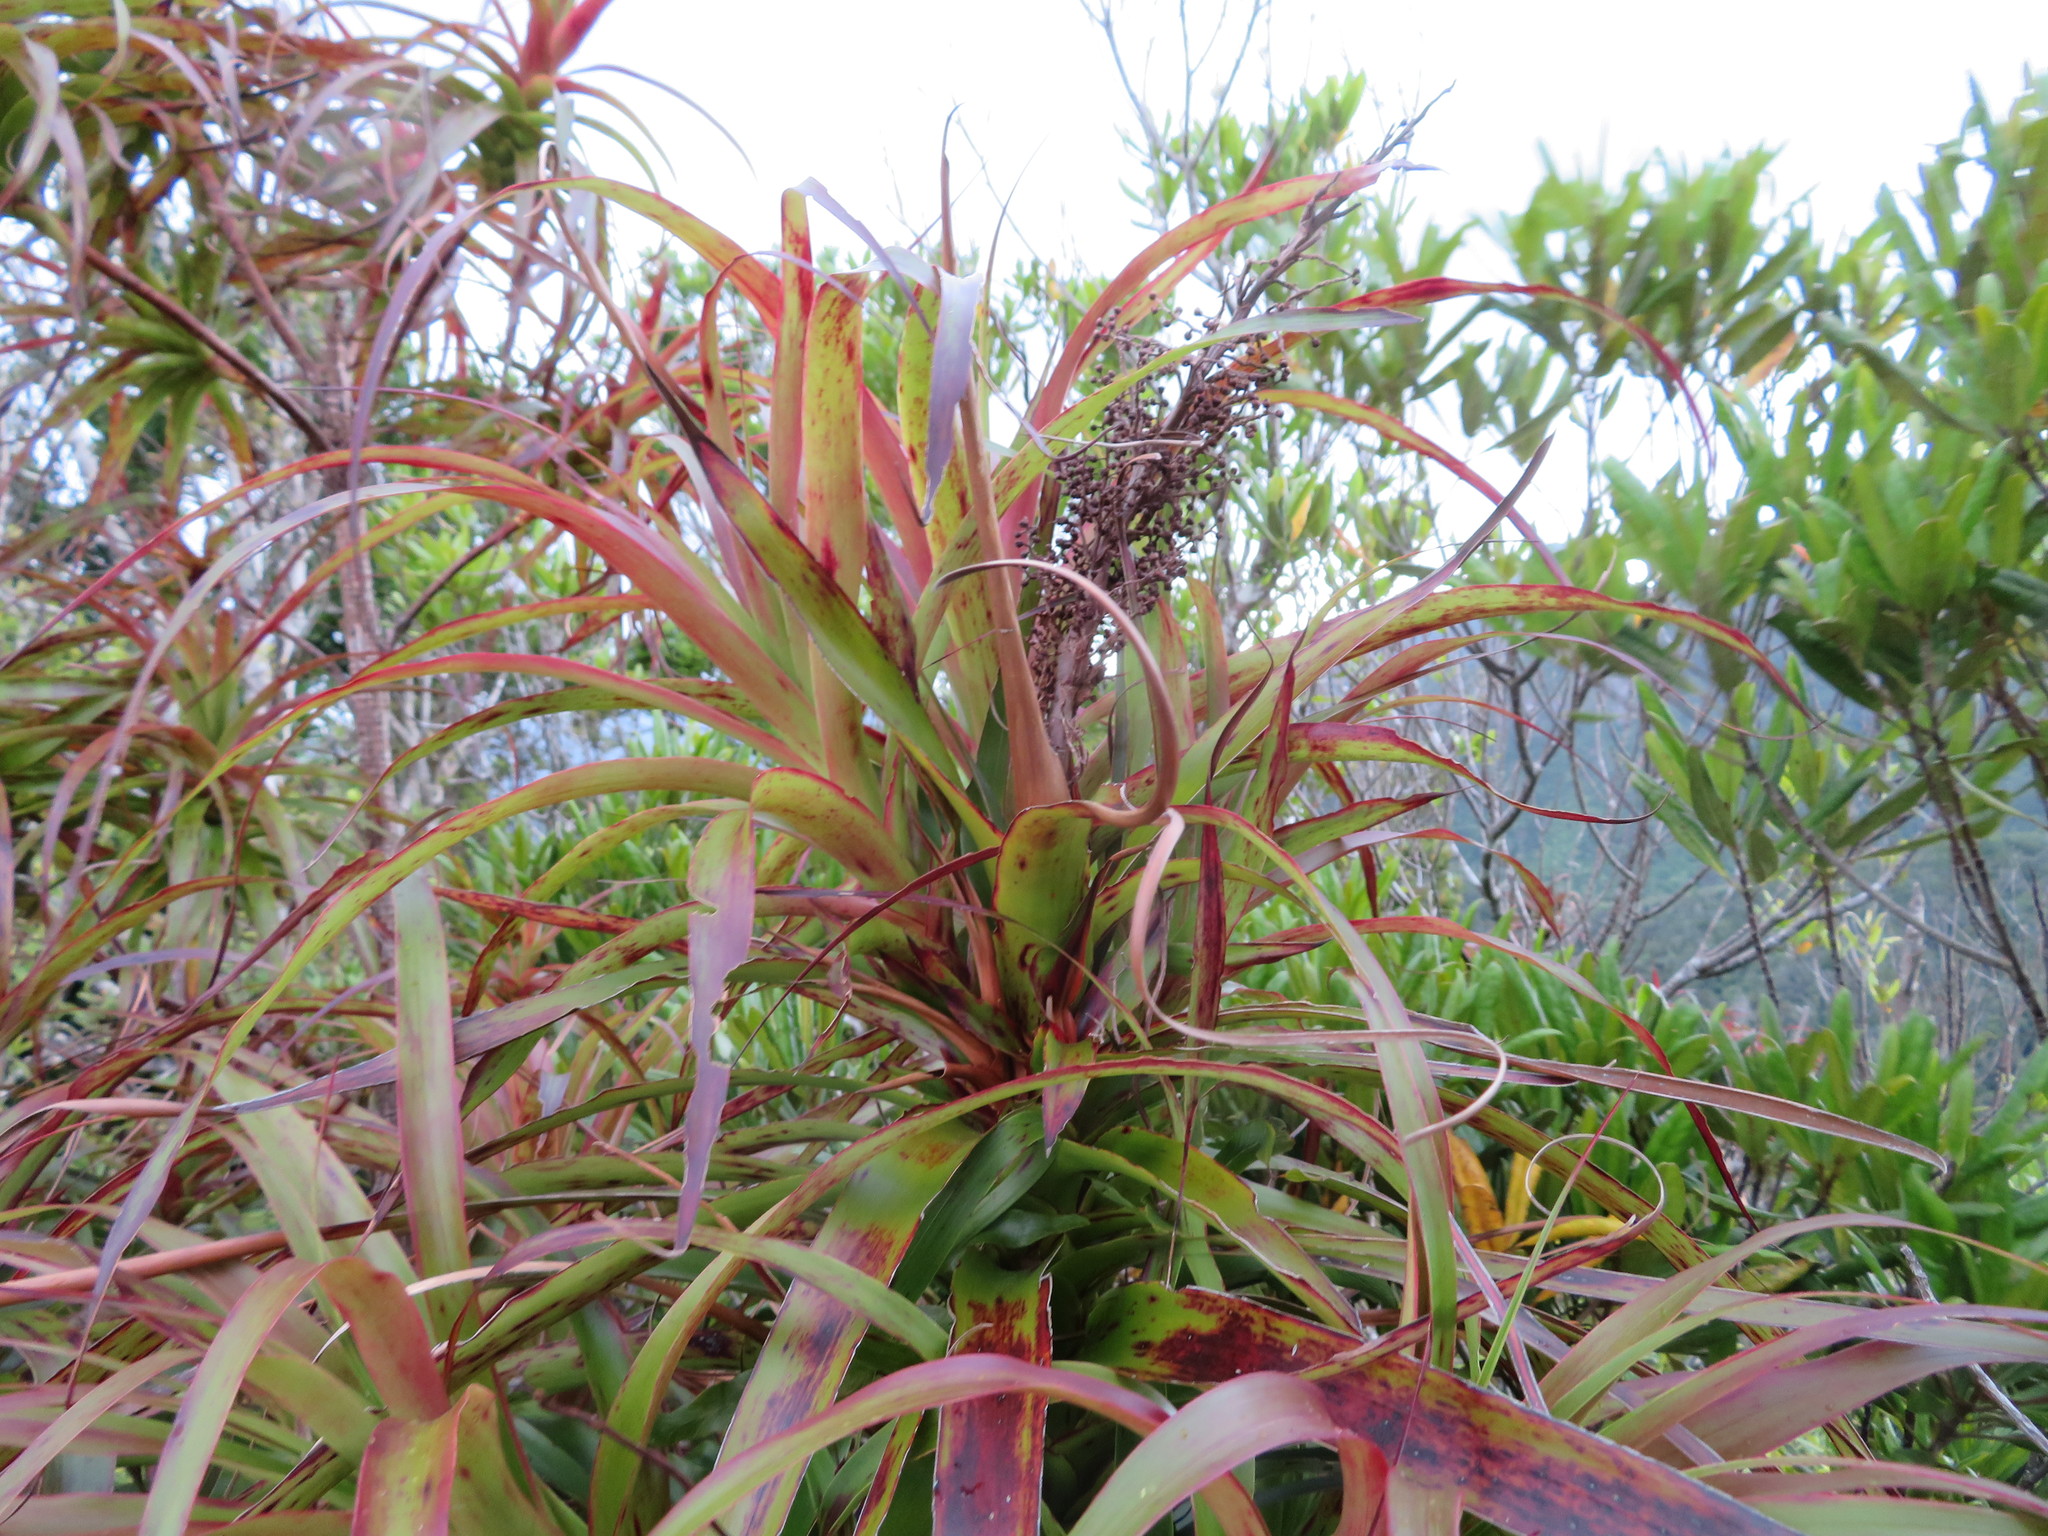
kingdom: Plantae
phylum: Tracheophyta
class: Magnoliopsida
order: Ericales
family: Ericaceae
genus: Dracophyllum
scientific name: Dracophyllum latifolium
